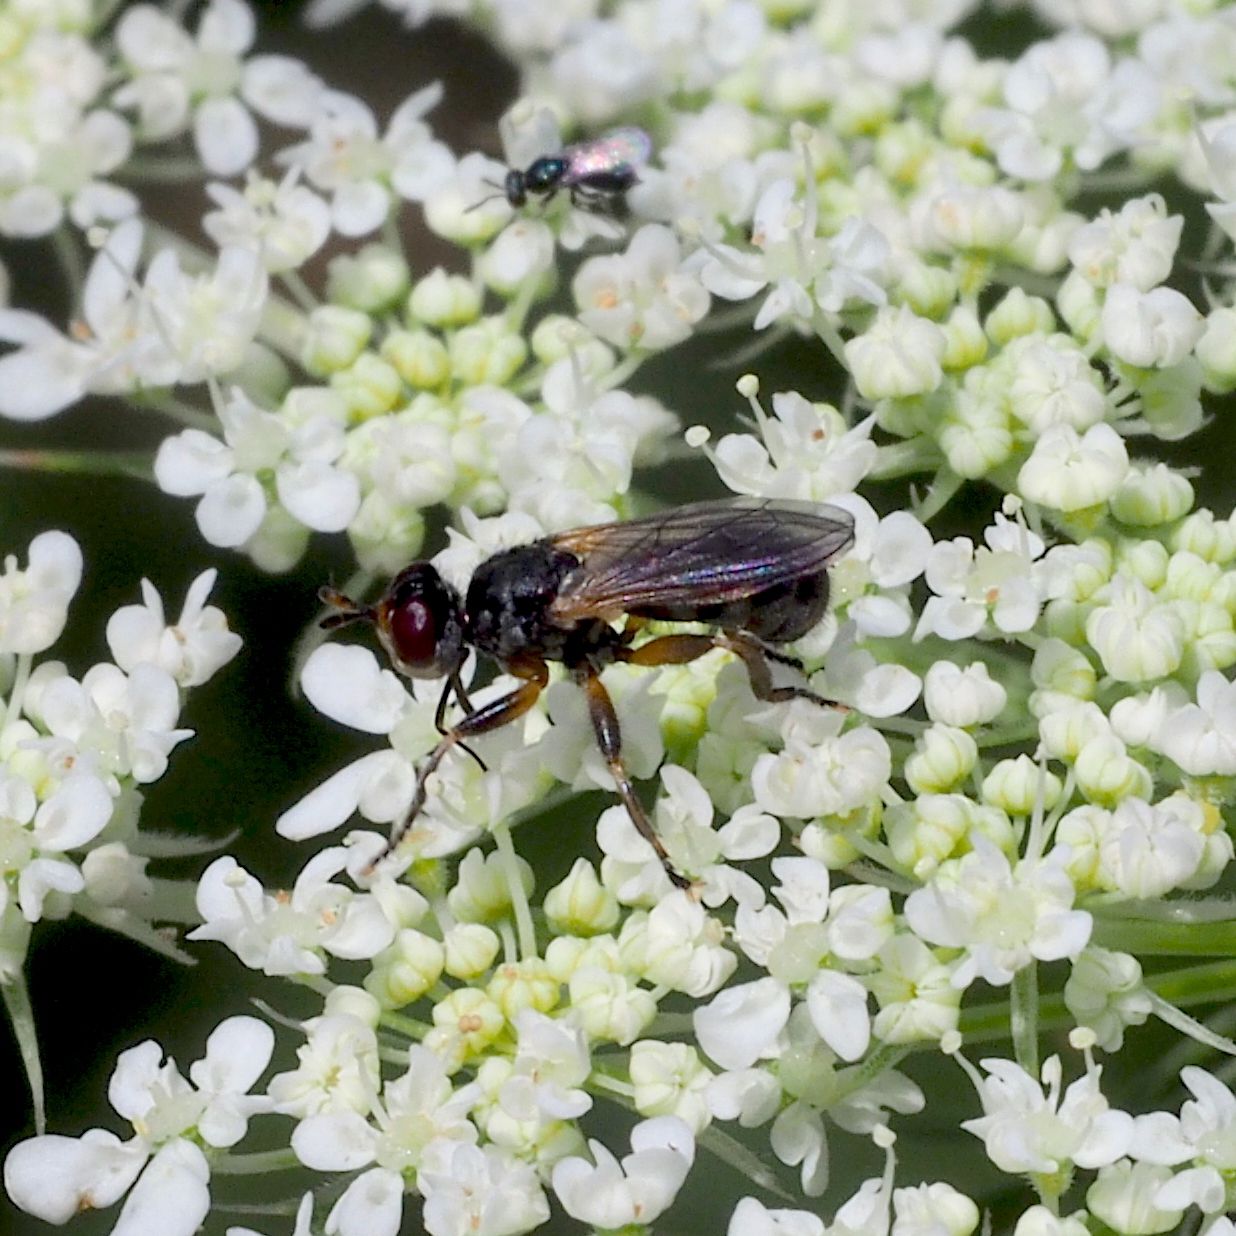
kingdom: Animalia
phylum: Arthropoda
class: Insecta
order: Diptera
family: Conopidae
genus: Thecophora
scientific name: Thecophora
